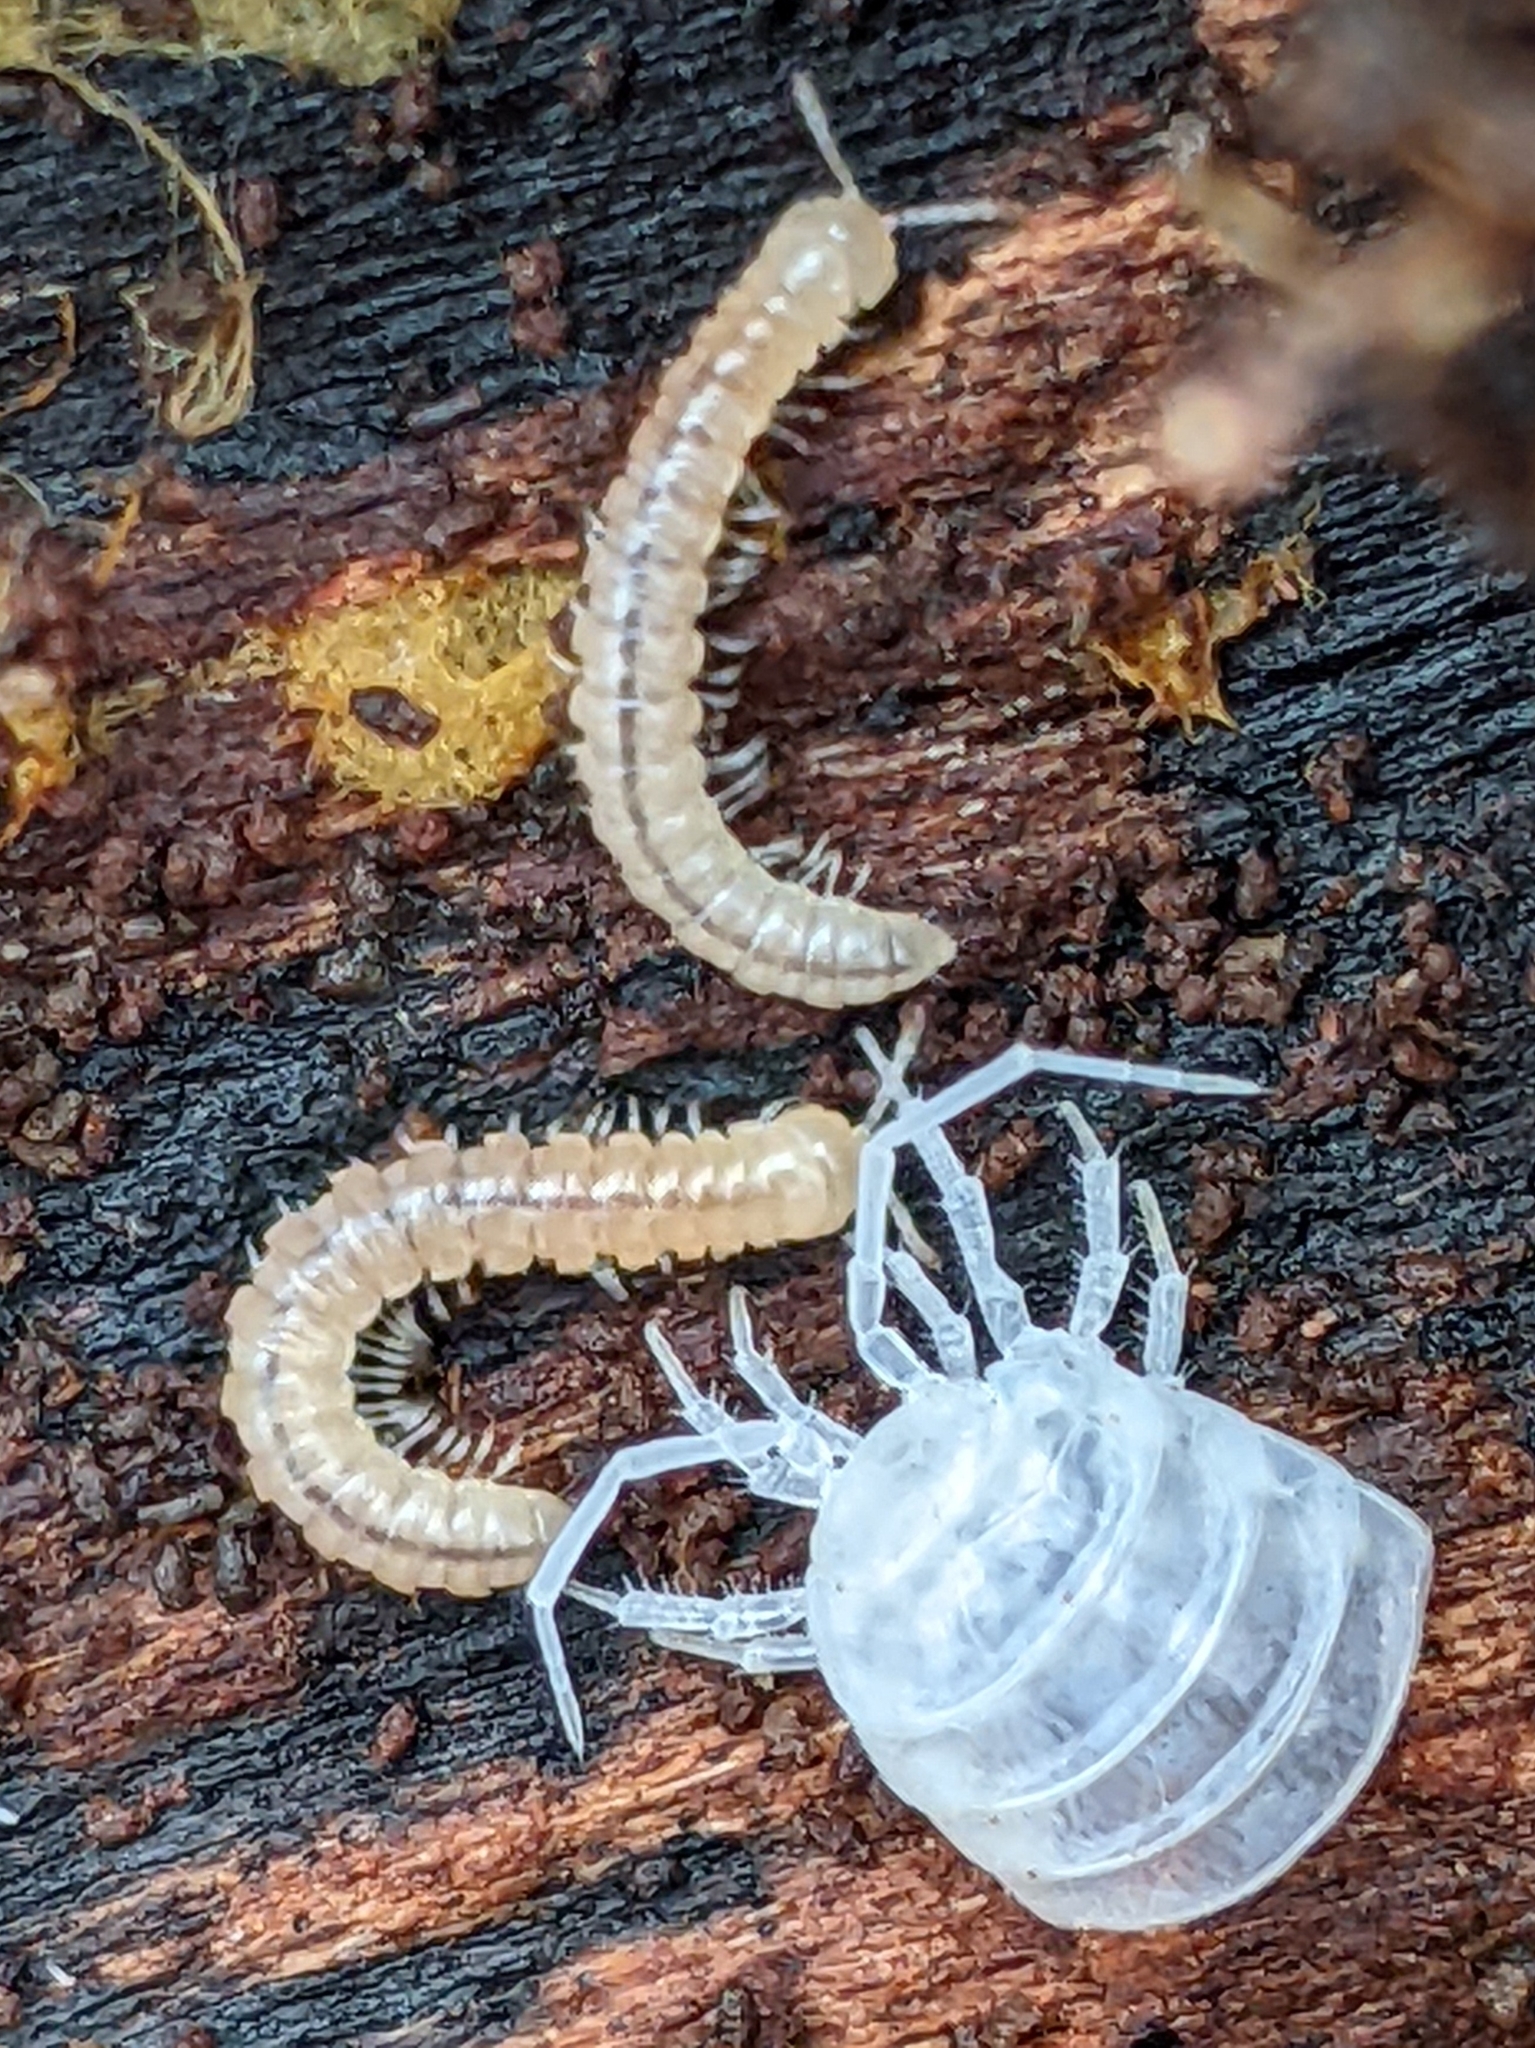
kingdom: Animalia
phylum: Arthropoda
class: Diplopoda
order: Polydesmida
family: Paradoxosomatidae
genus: Oxidus
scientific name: Oxidus gracilis
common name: Greenhouse millipede
